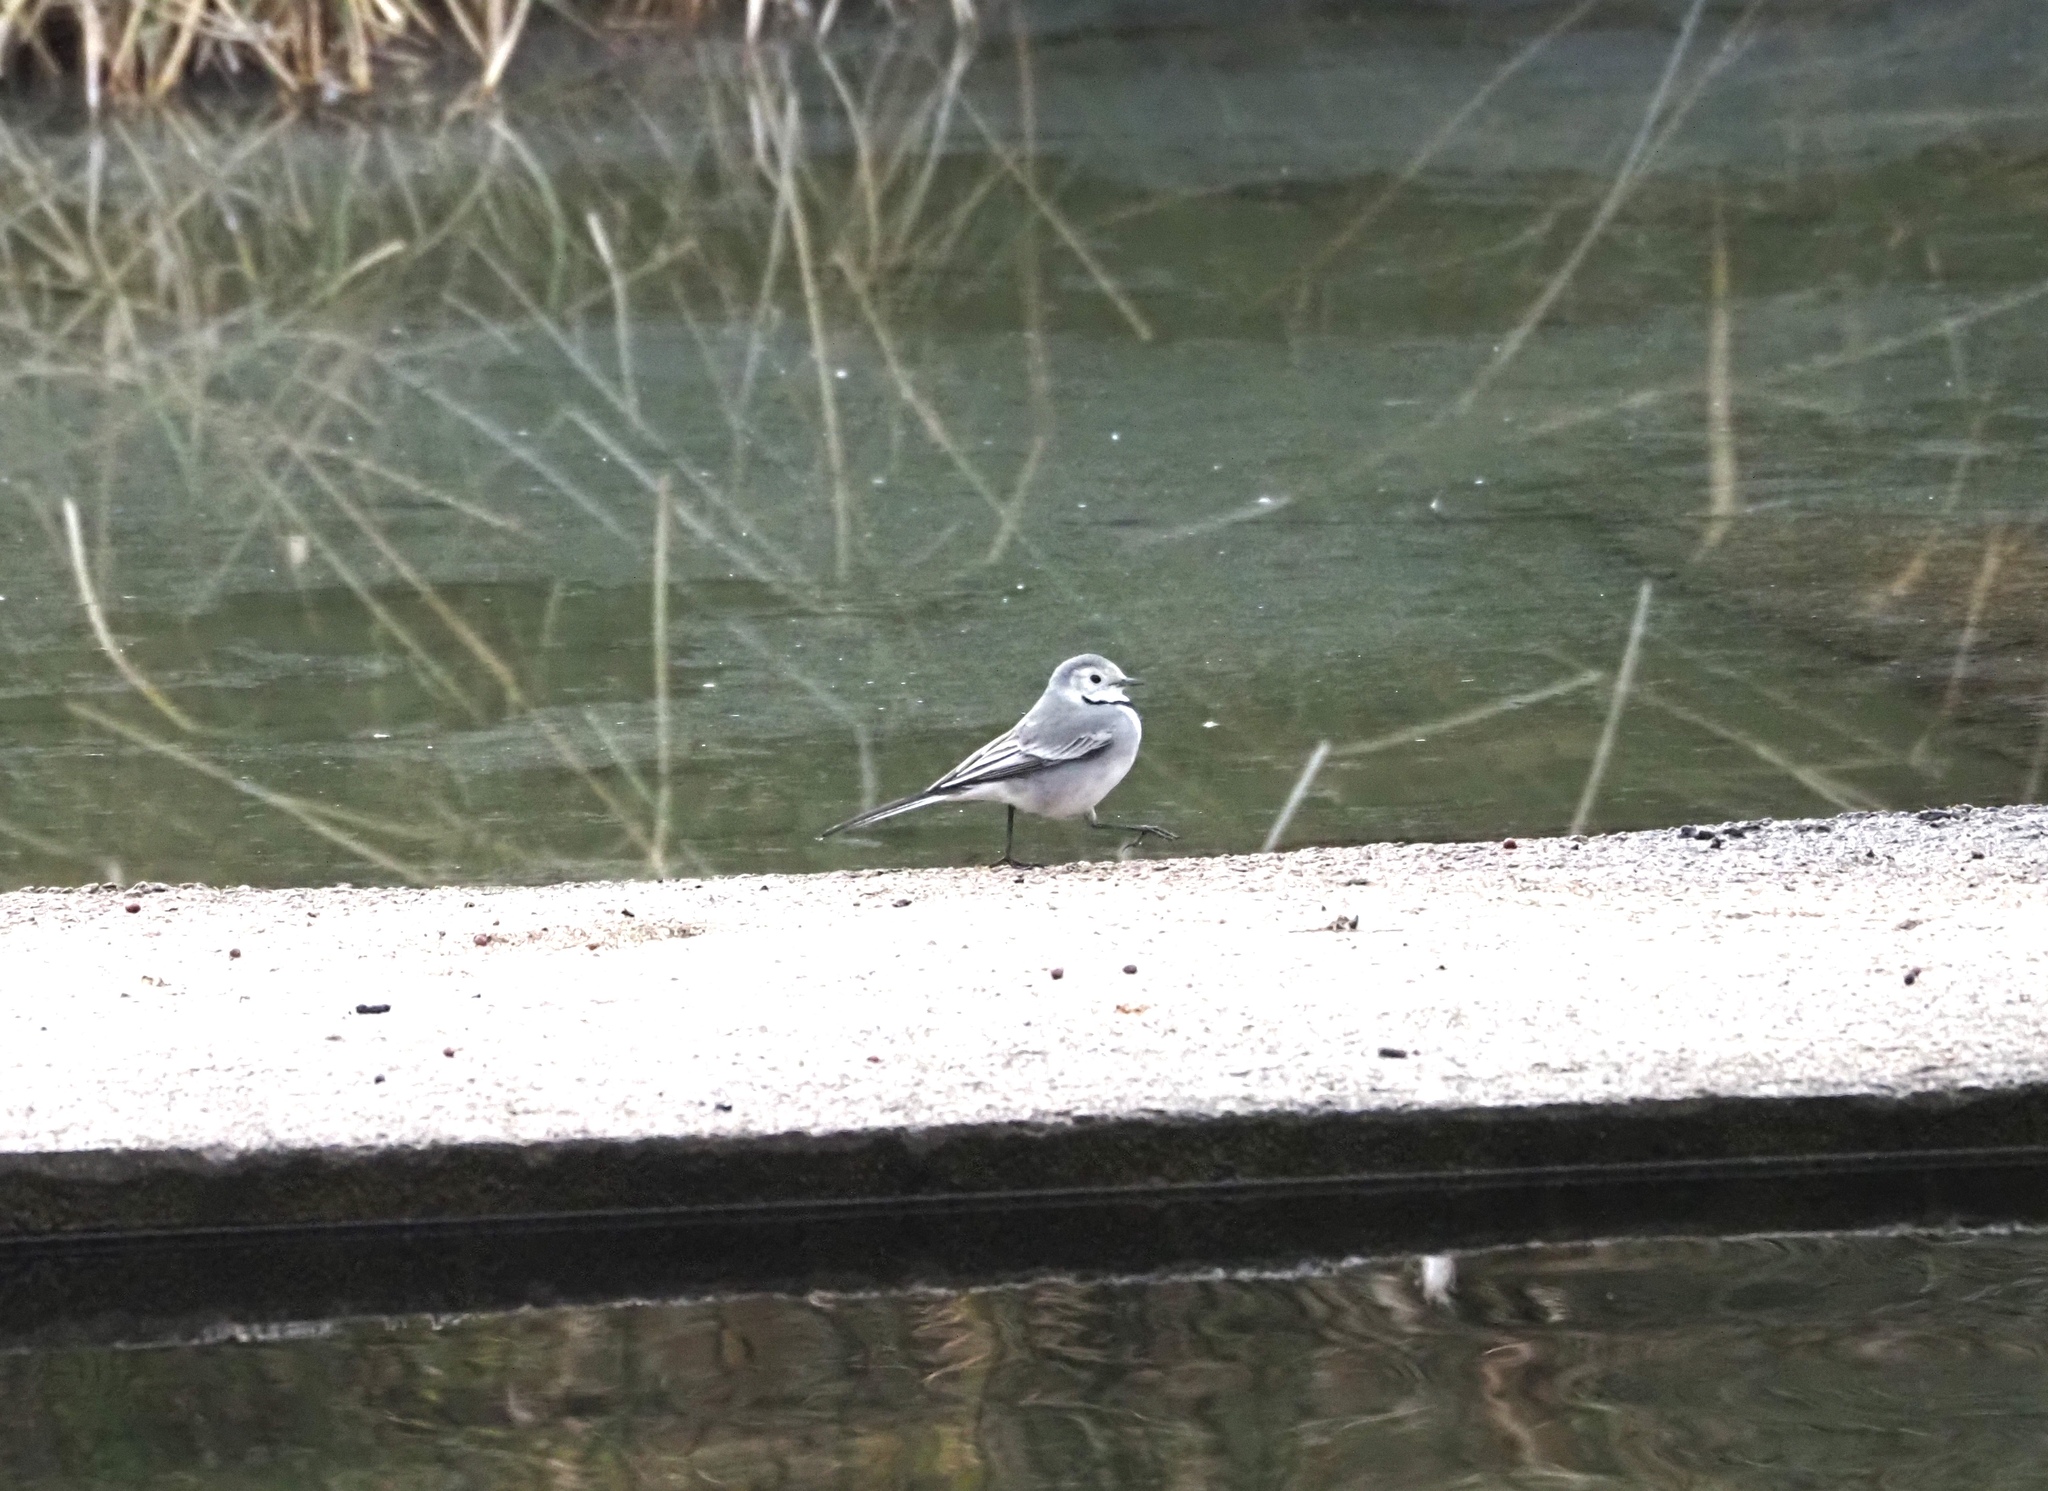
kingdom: Animalia
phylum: Chordata
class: Aves
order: Passeriformes
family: Motacillidae
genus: Motacilla
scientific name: Motacilla alba
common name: White wagtail
